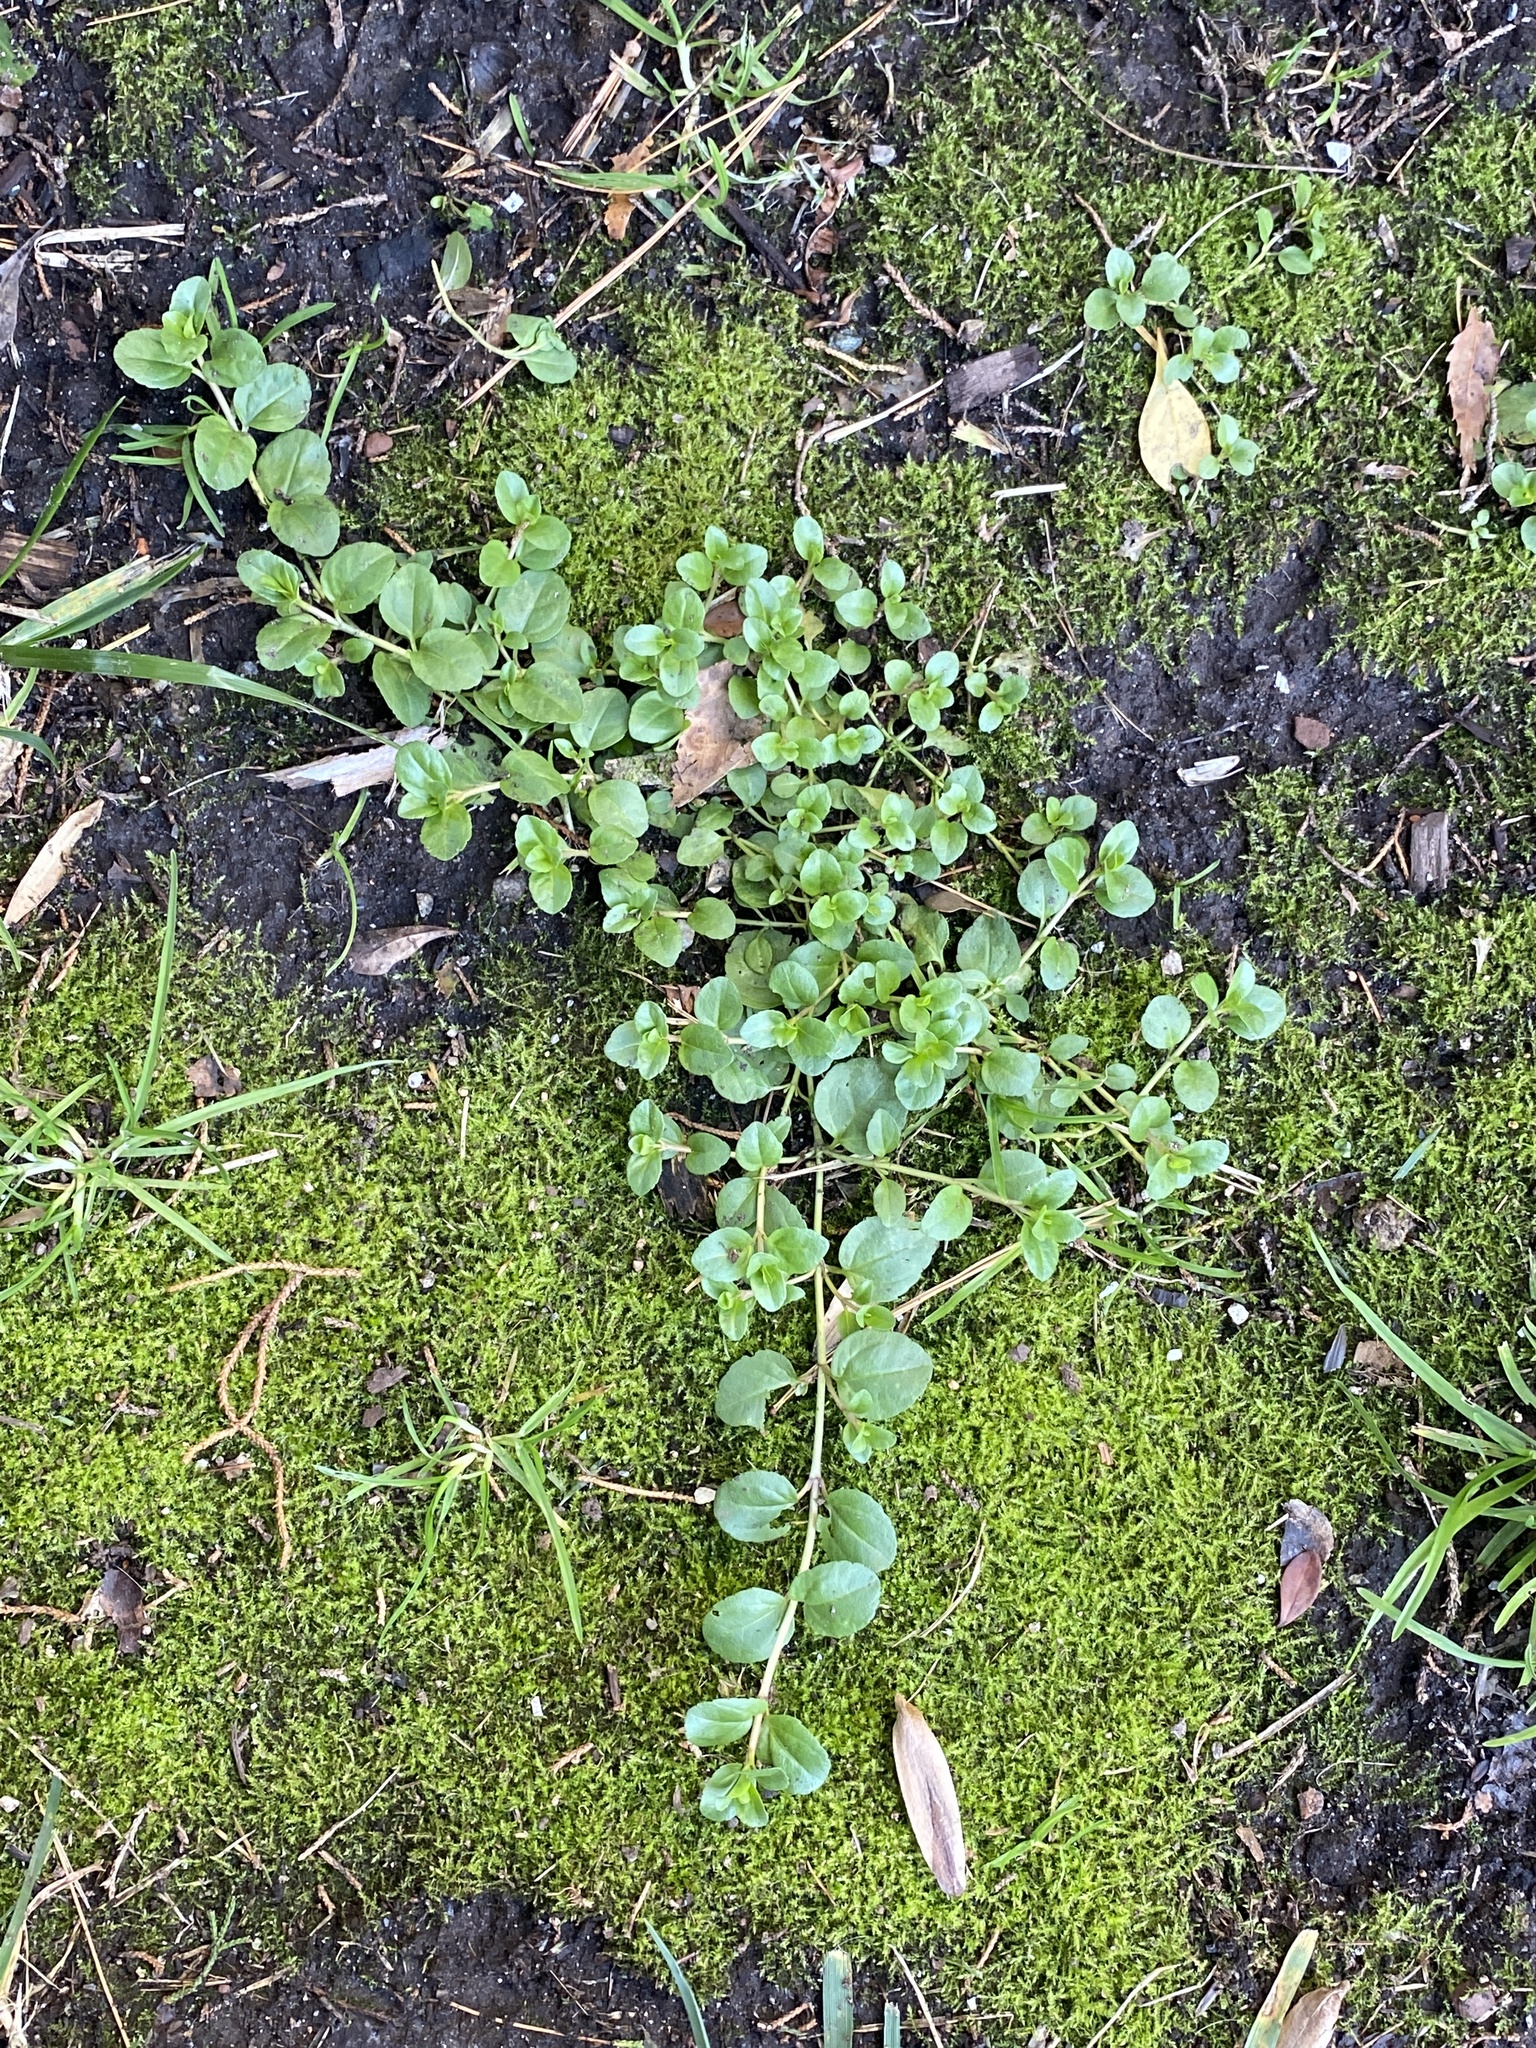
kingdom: Plantae
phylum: Tracheophyta
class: Magnoliopsida
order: Lamiales
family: Plantaginaceae
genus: Veronica
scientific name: Veronica serpyllifolia
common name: Thyme-leaved speedwell
